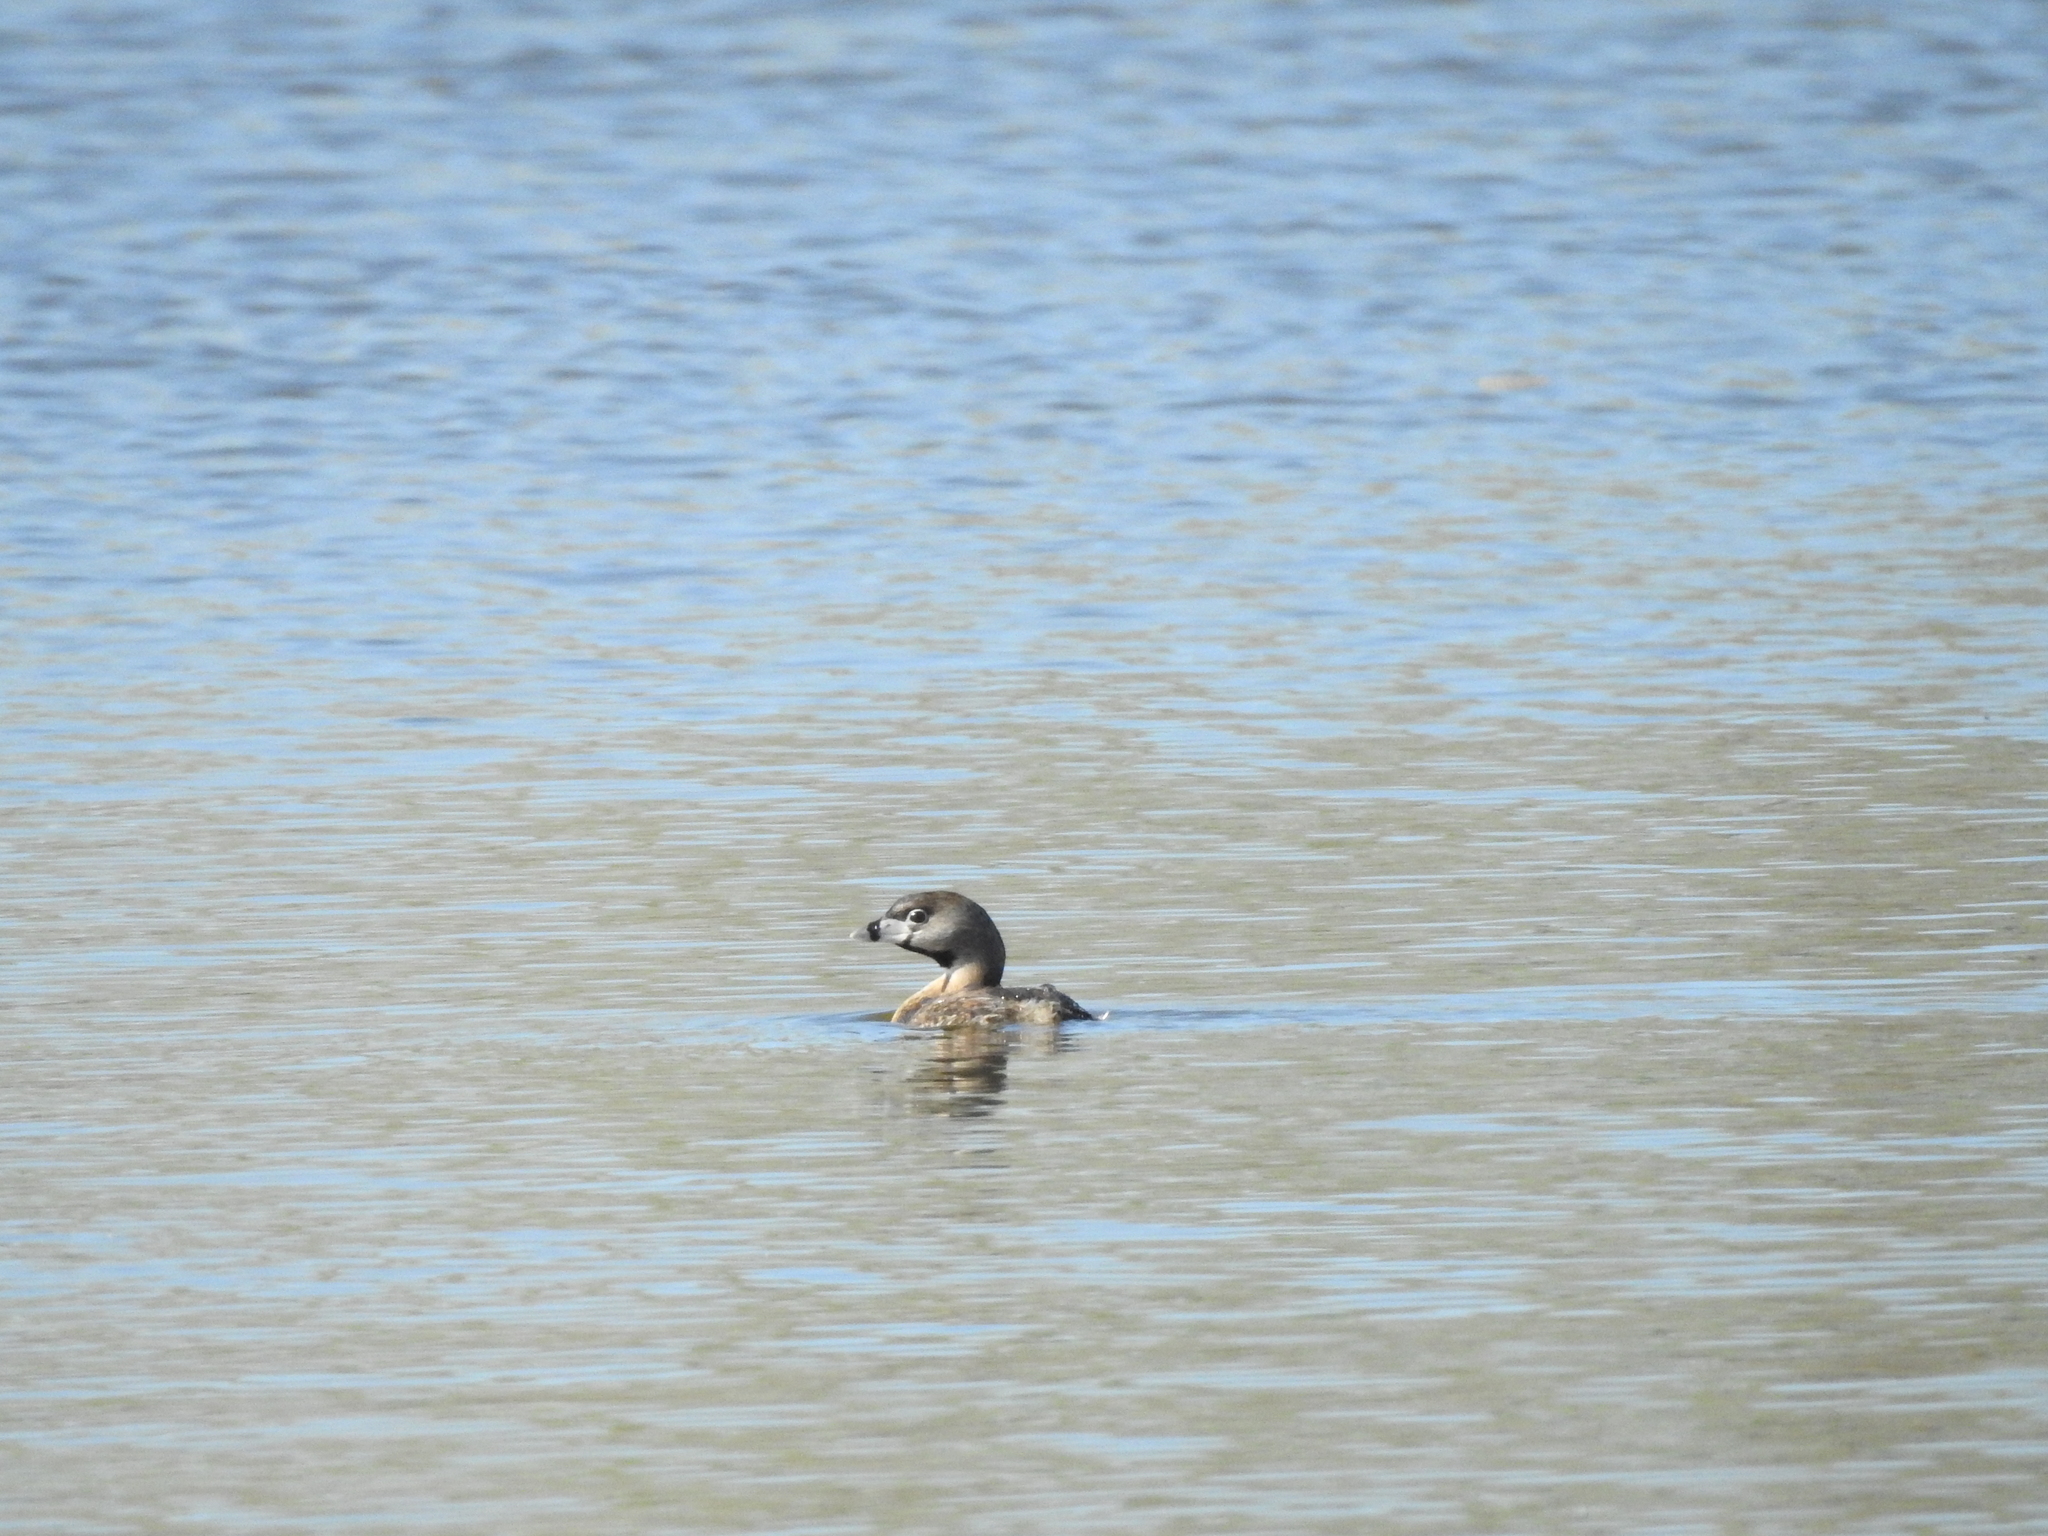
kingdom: Animalia
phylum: Chordata
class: Aves
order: Podicipediformes
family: Podicipedidae
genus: Podilymbus
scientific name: Podilymbus podiceps
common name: Pied-billed grebe
